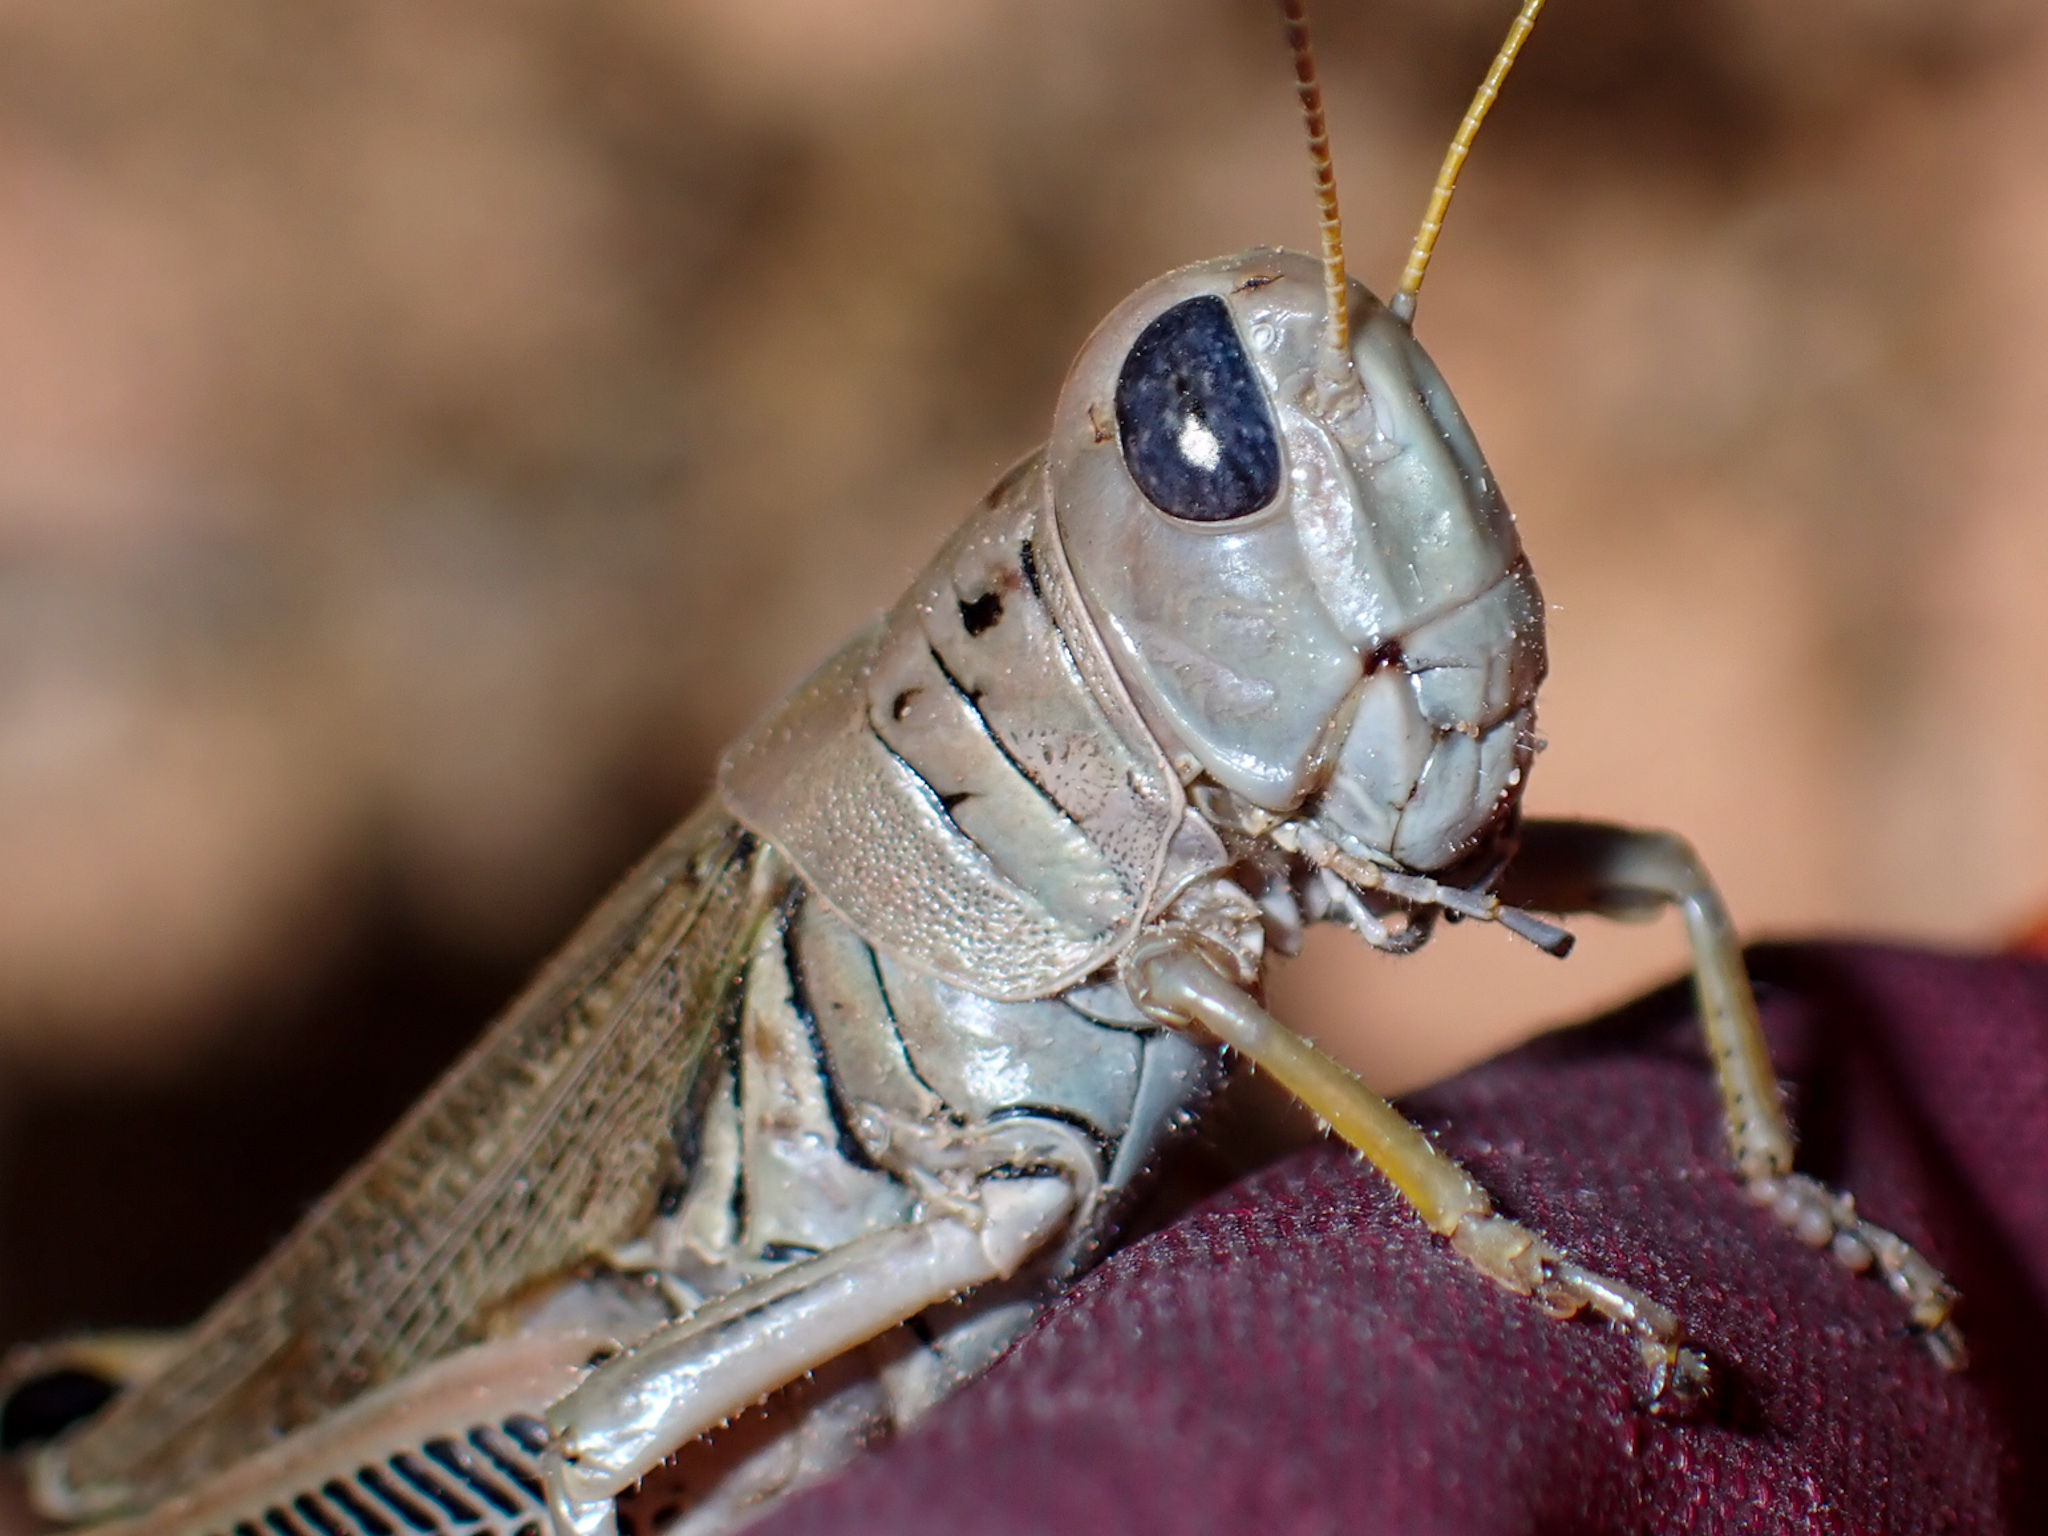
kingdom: Animalia
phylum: Arthropoda
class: Insecta
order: Orthoptera
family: Acrididae
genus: Melanoplus
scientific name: Melanoplus differentialis
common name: Differential grasshopper
